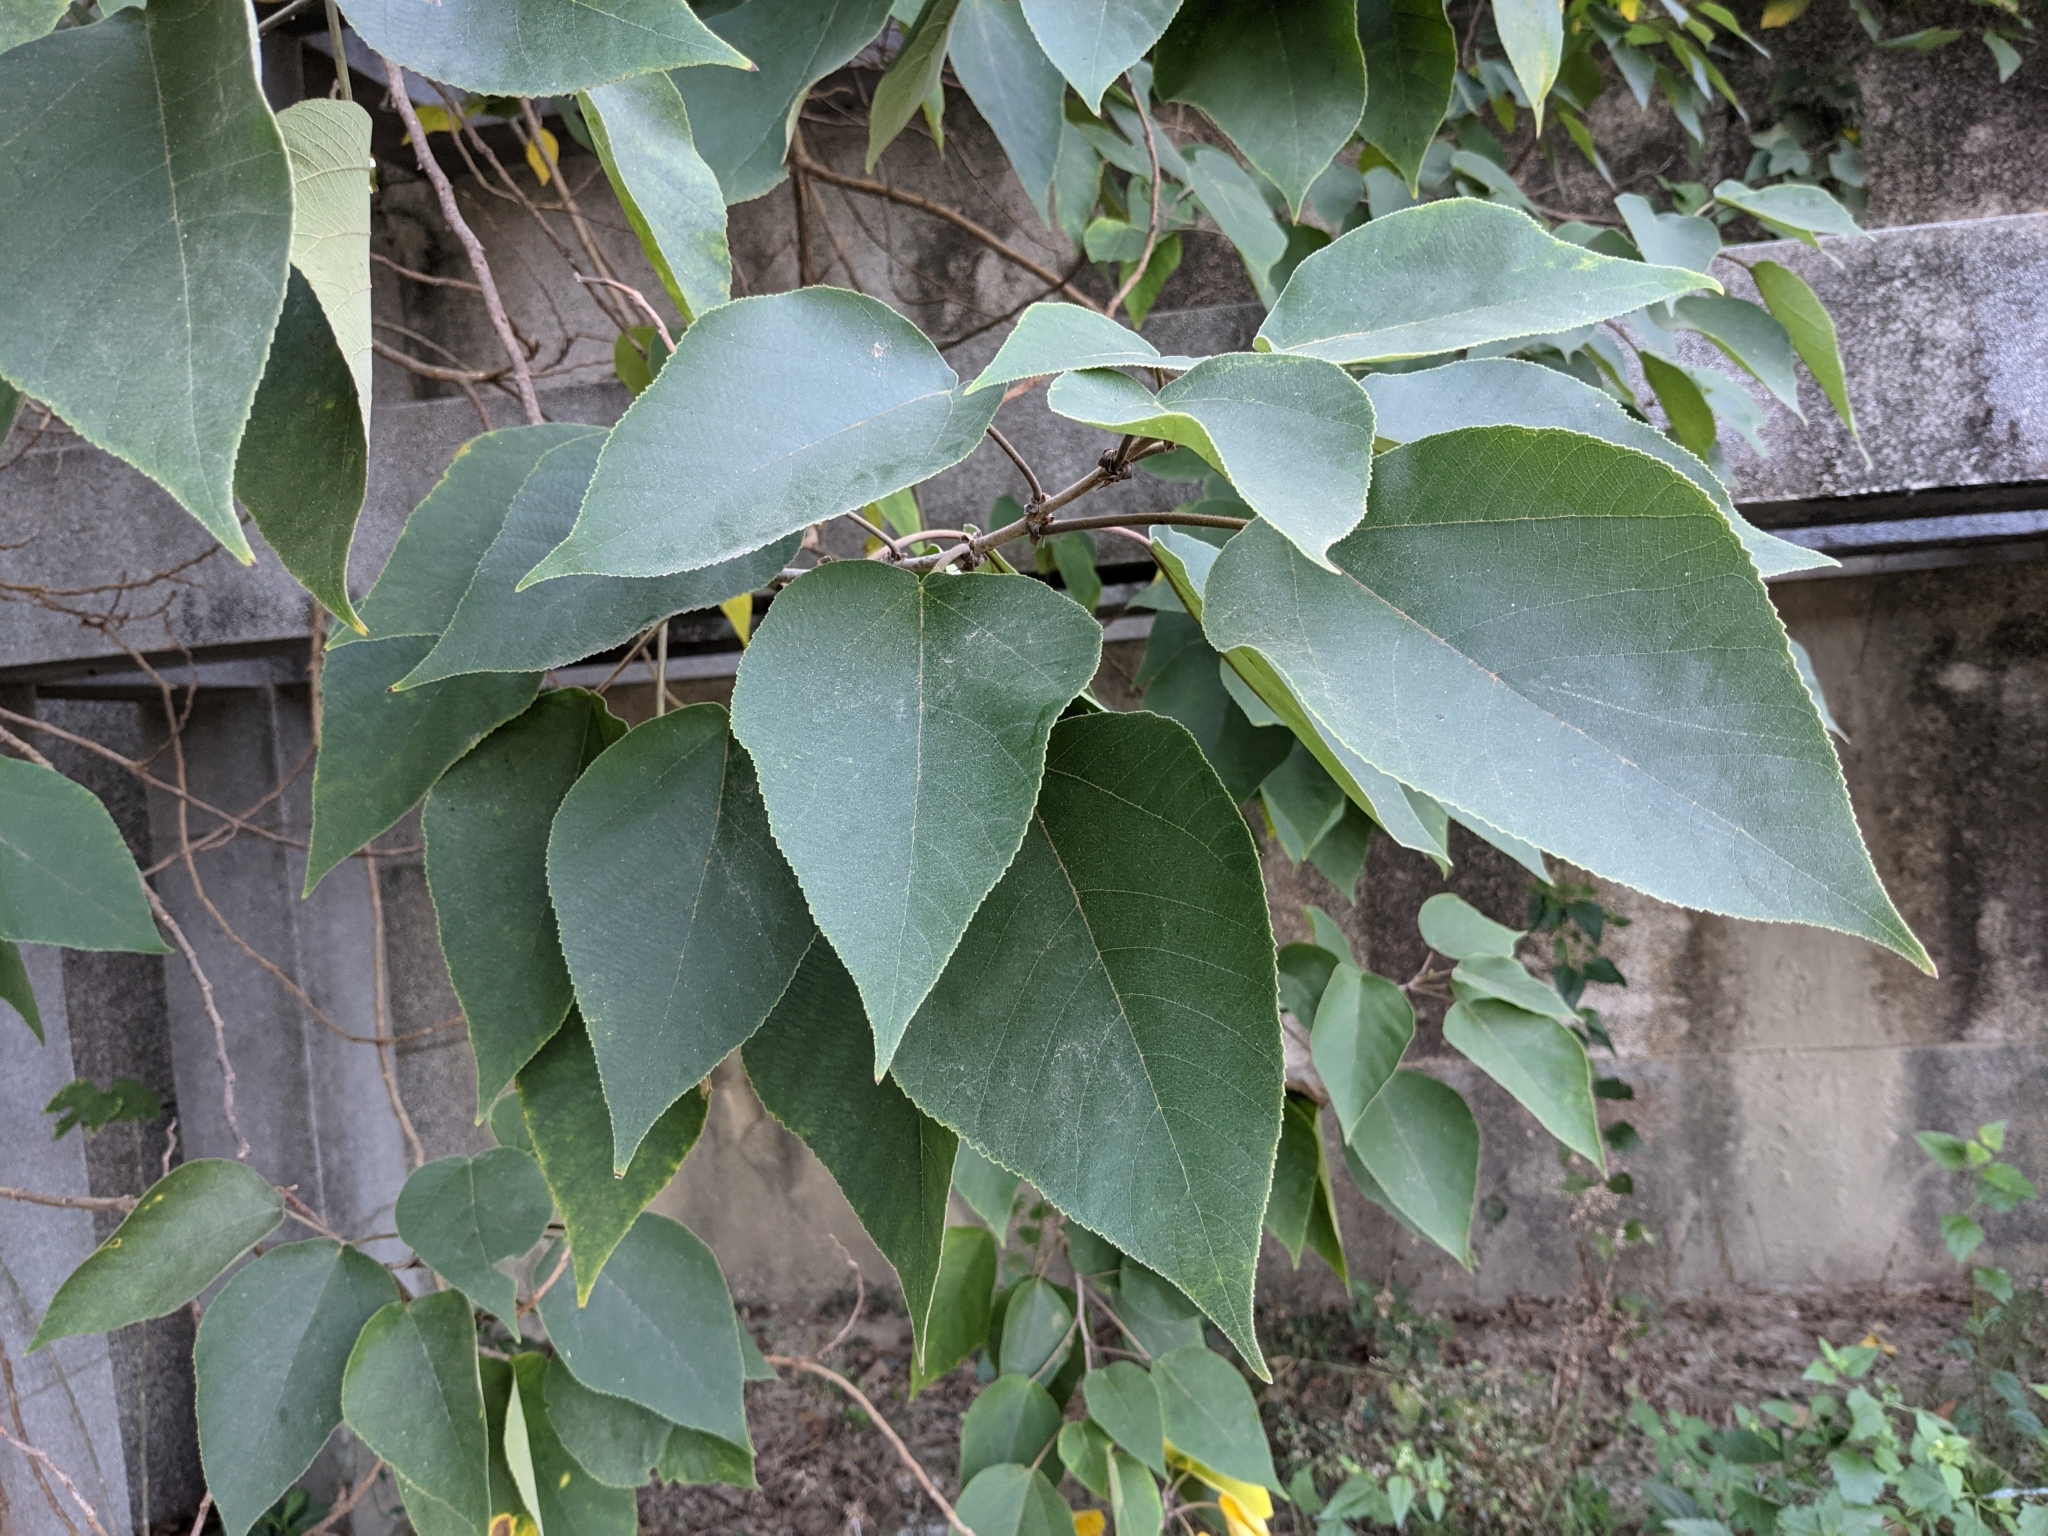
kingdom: Plantae
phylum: Tracheophyta
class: Magnoliopsida
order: Rosales
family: Moraceae
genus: Broussonetia
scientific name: Broussonetia papyrifera
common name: Paper mulberry
